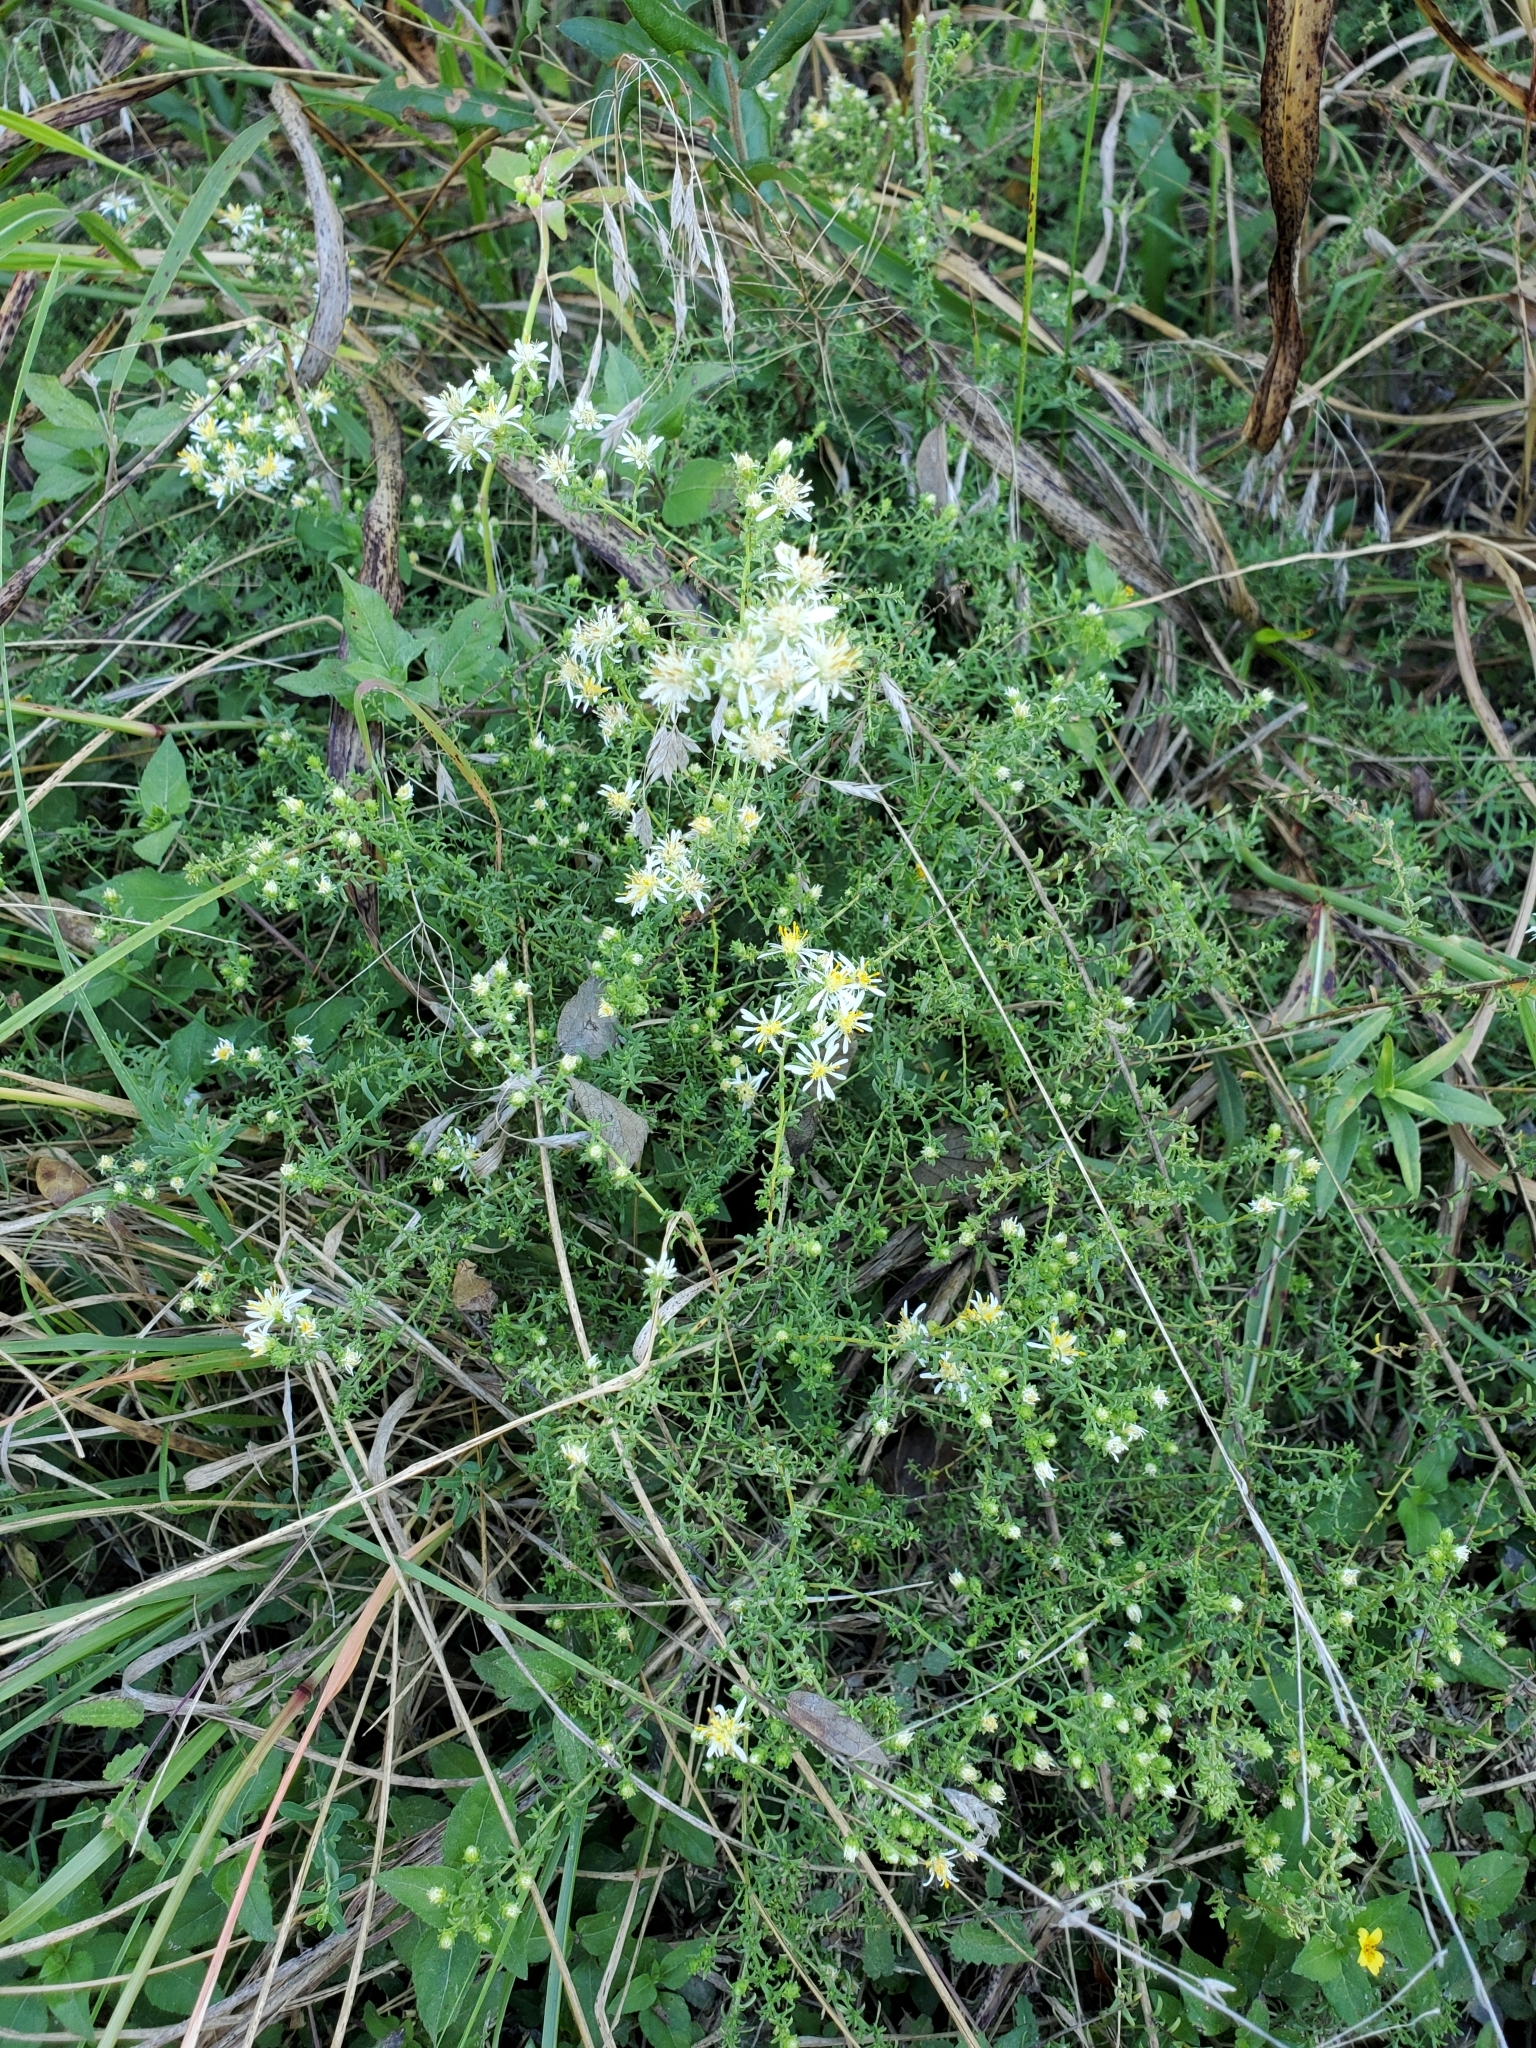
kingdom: Plantae
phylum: Tracheophyta
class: Magnoliopsida
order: Asterales
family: Asteraceae
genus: Symphyotrichum
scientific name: Symphyotrichum ericoides
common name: Heath aster
